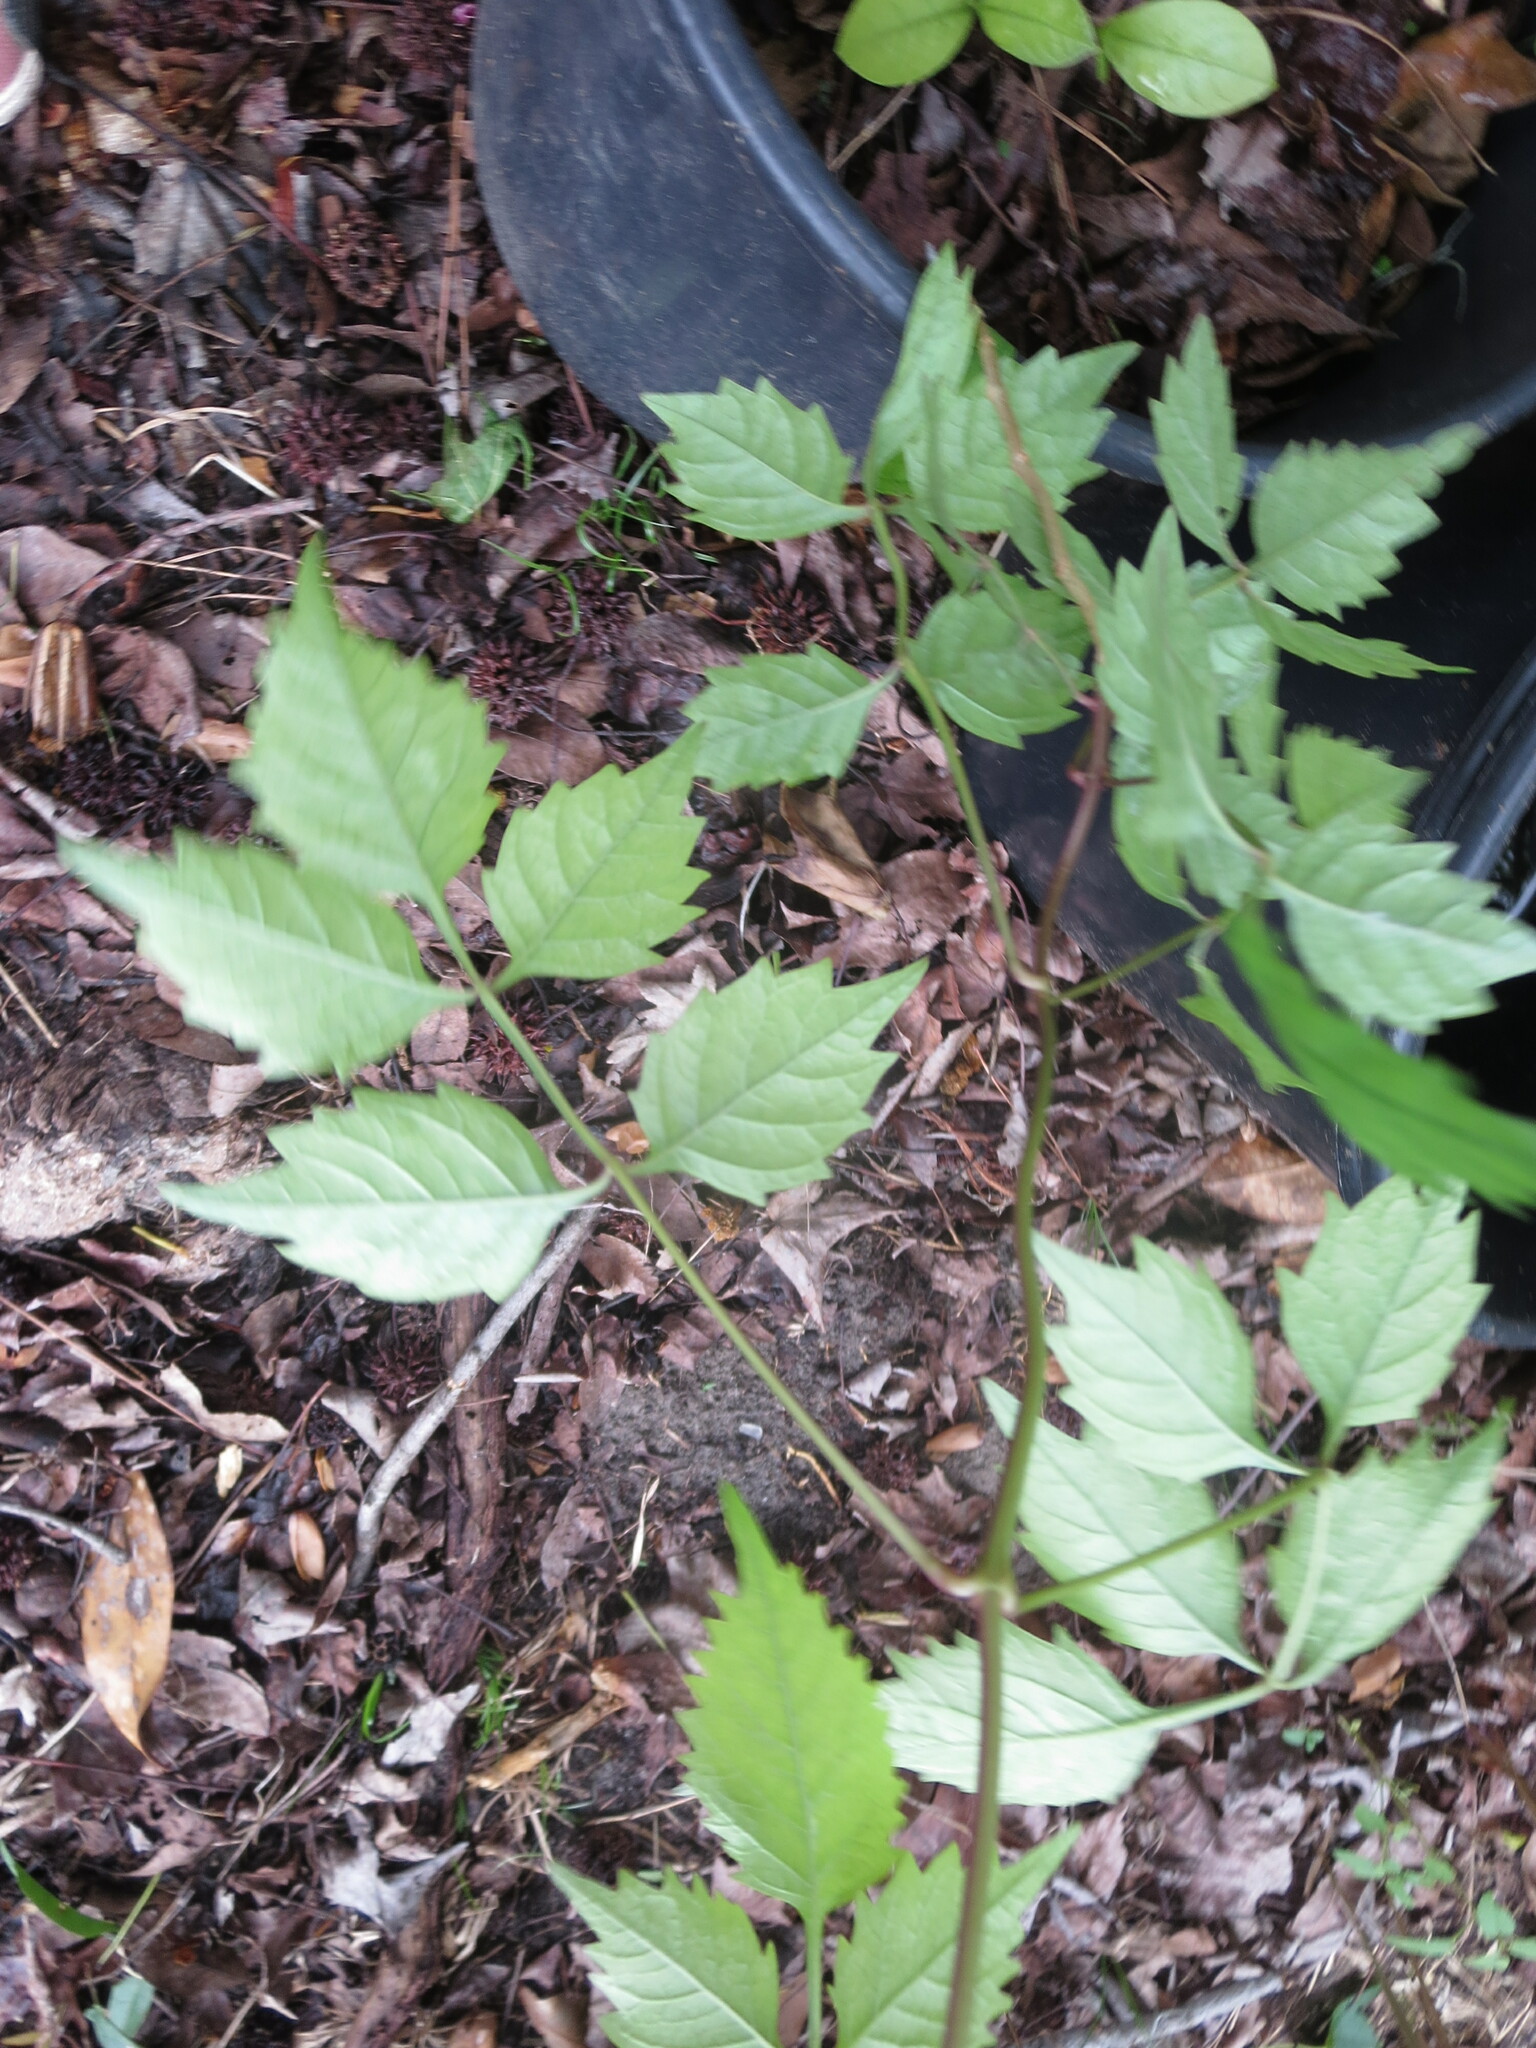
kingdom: Plantae
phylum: Tracheophyta
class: Magnoliopsida
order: Lamiales
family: Bignoniaceae
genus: Campsis
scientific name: Campsis radicans
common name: Trumpet-creeper
